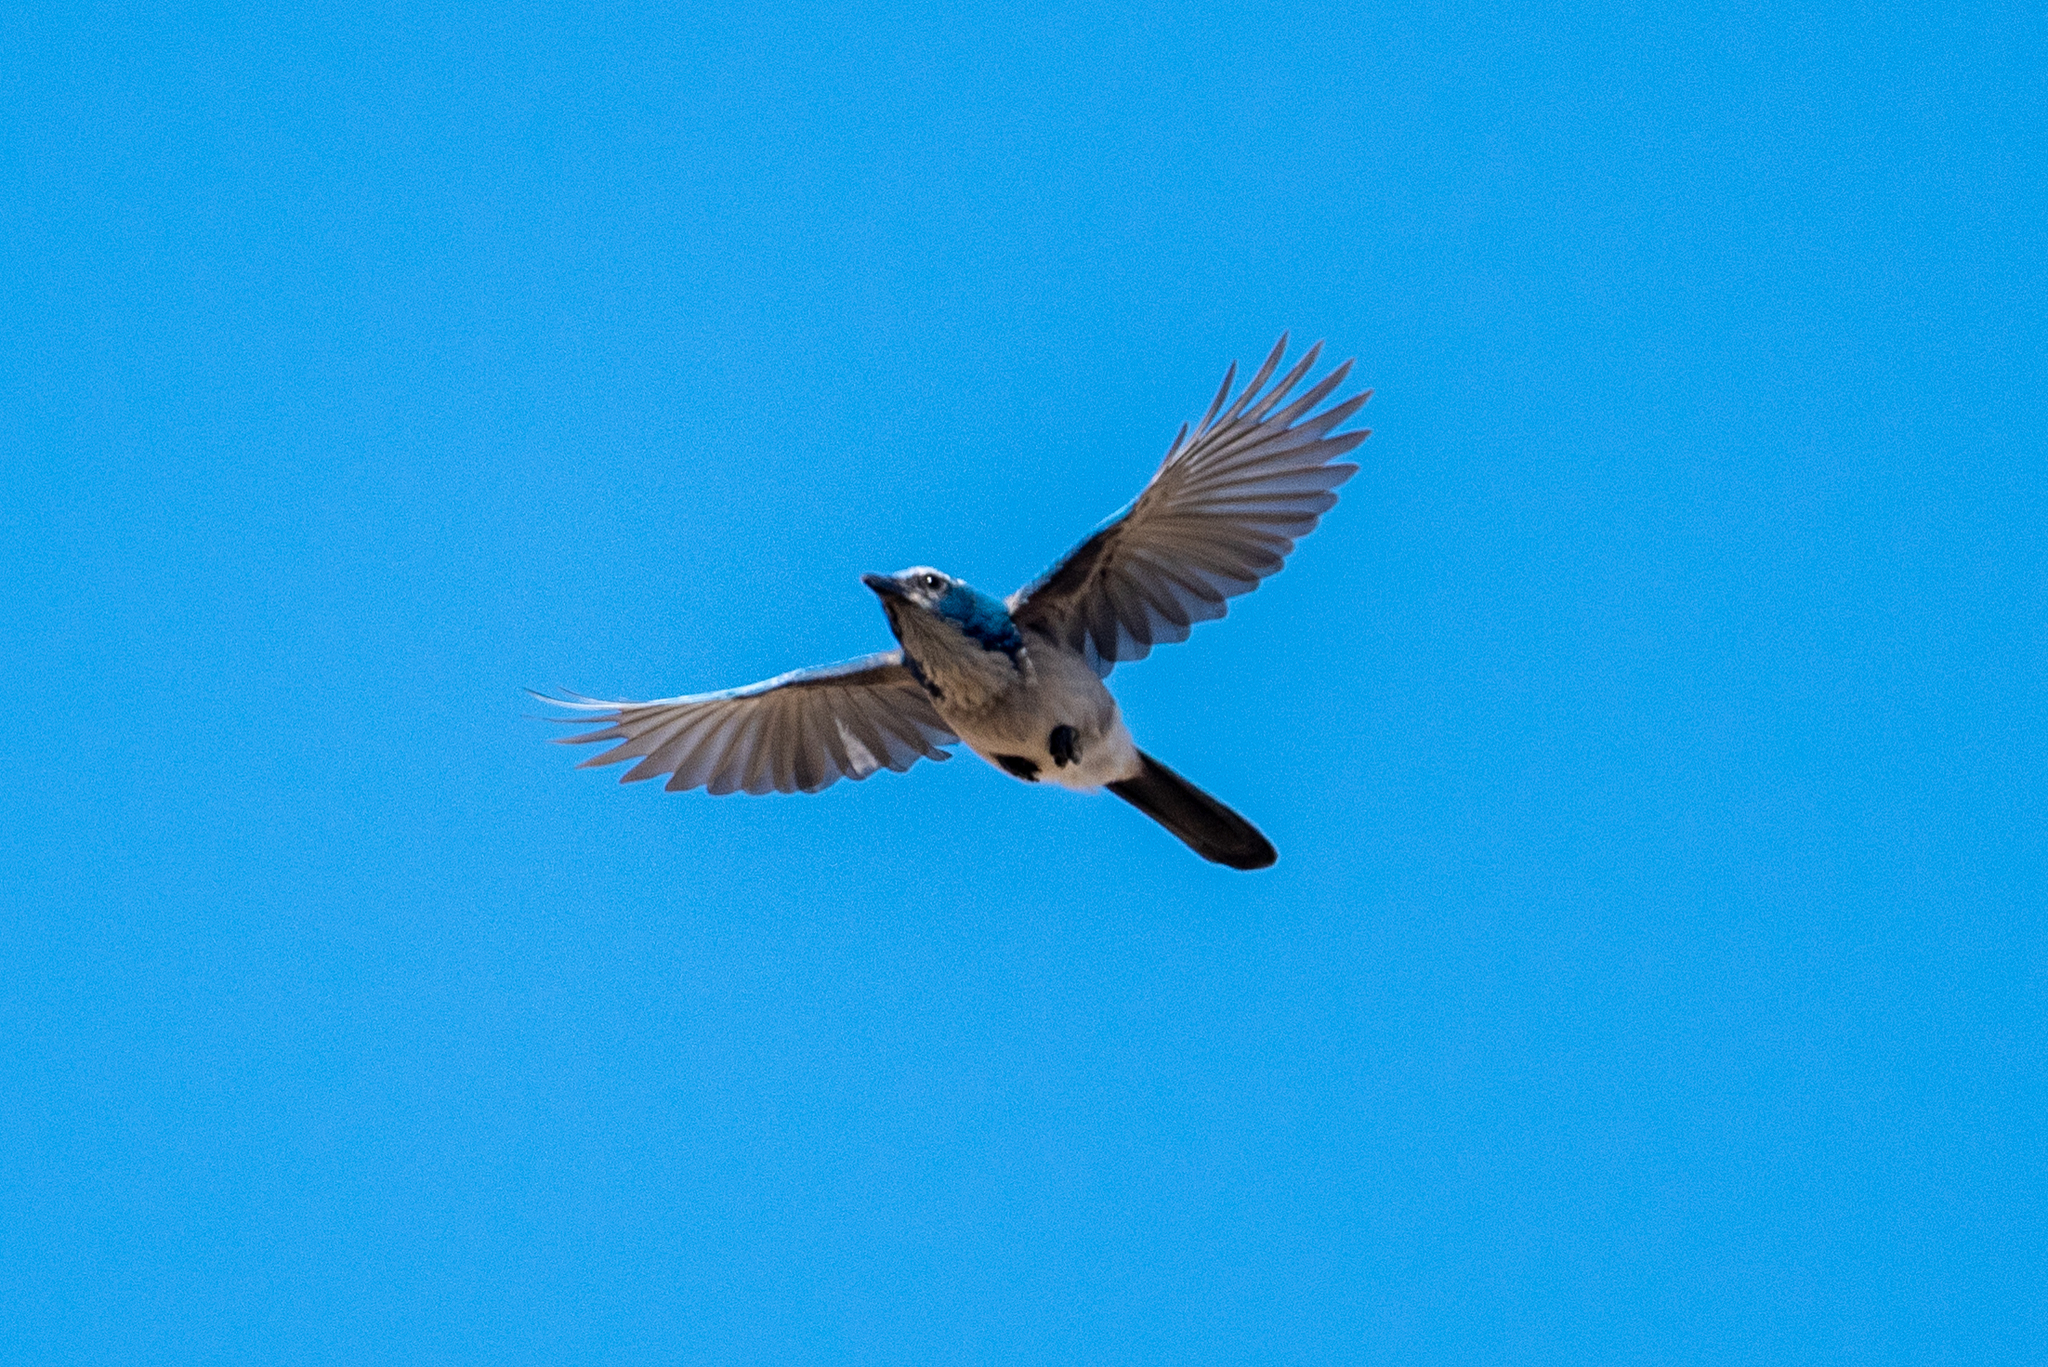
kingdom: Animalia
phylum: Chordata
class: Aves
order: Passeriformes
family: Corvidae
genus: Aphelocoma
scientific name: Aphelocoma californica
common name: California scrub-jay
